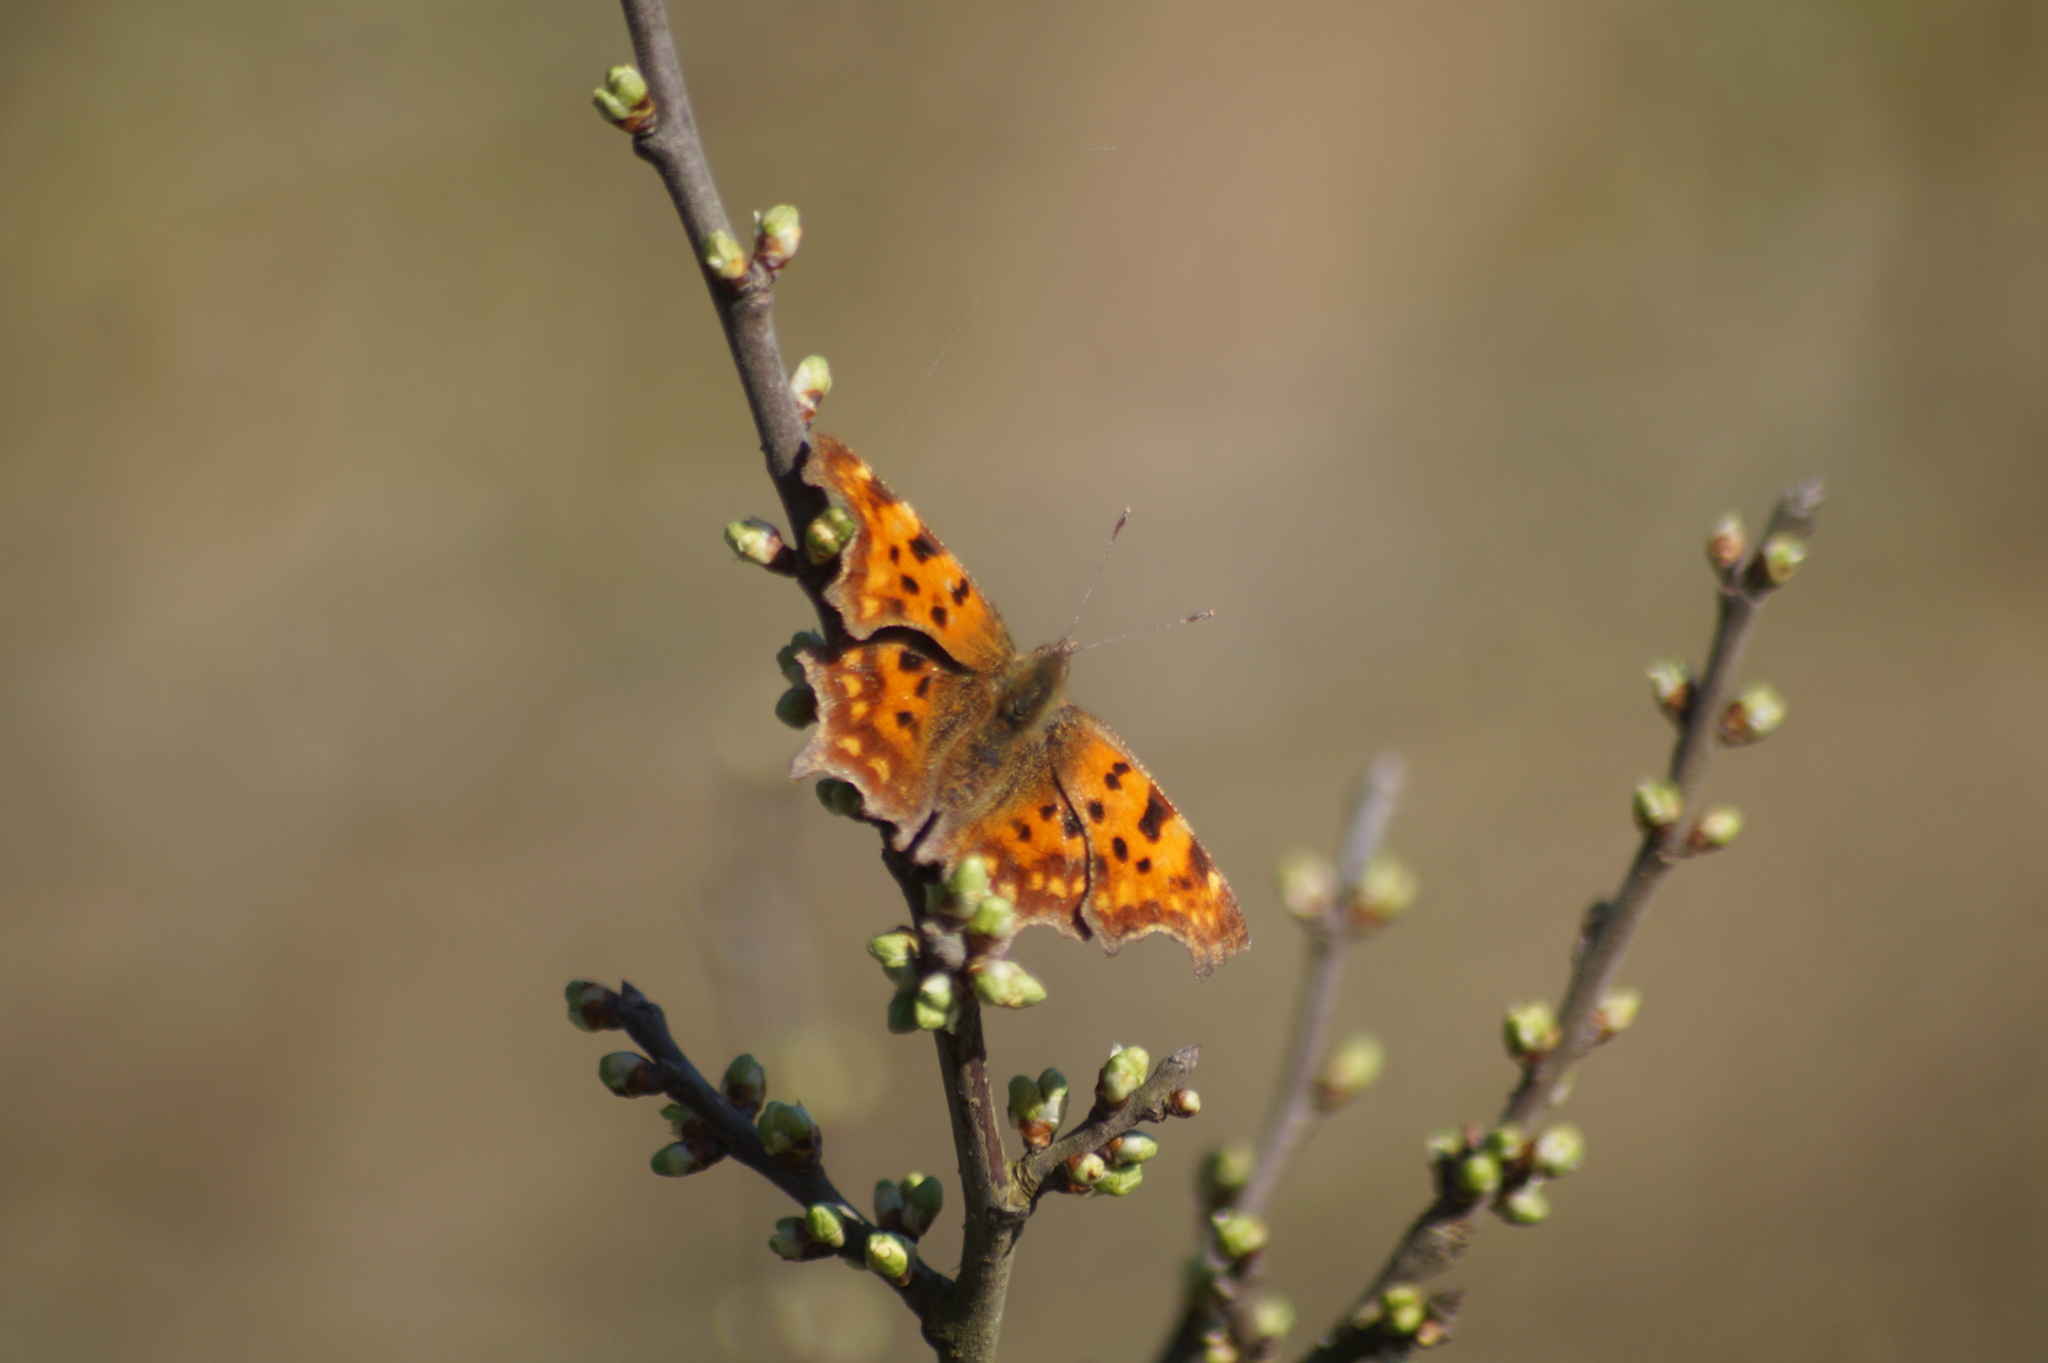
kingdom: Animalia
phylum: Arthropoda
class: Insecta
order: Lepidoptera
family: Nymphalidae
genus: Polygonia
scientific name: Polygonia c-album
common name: Comma
